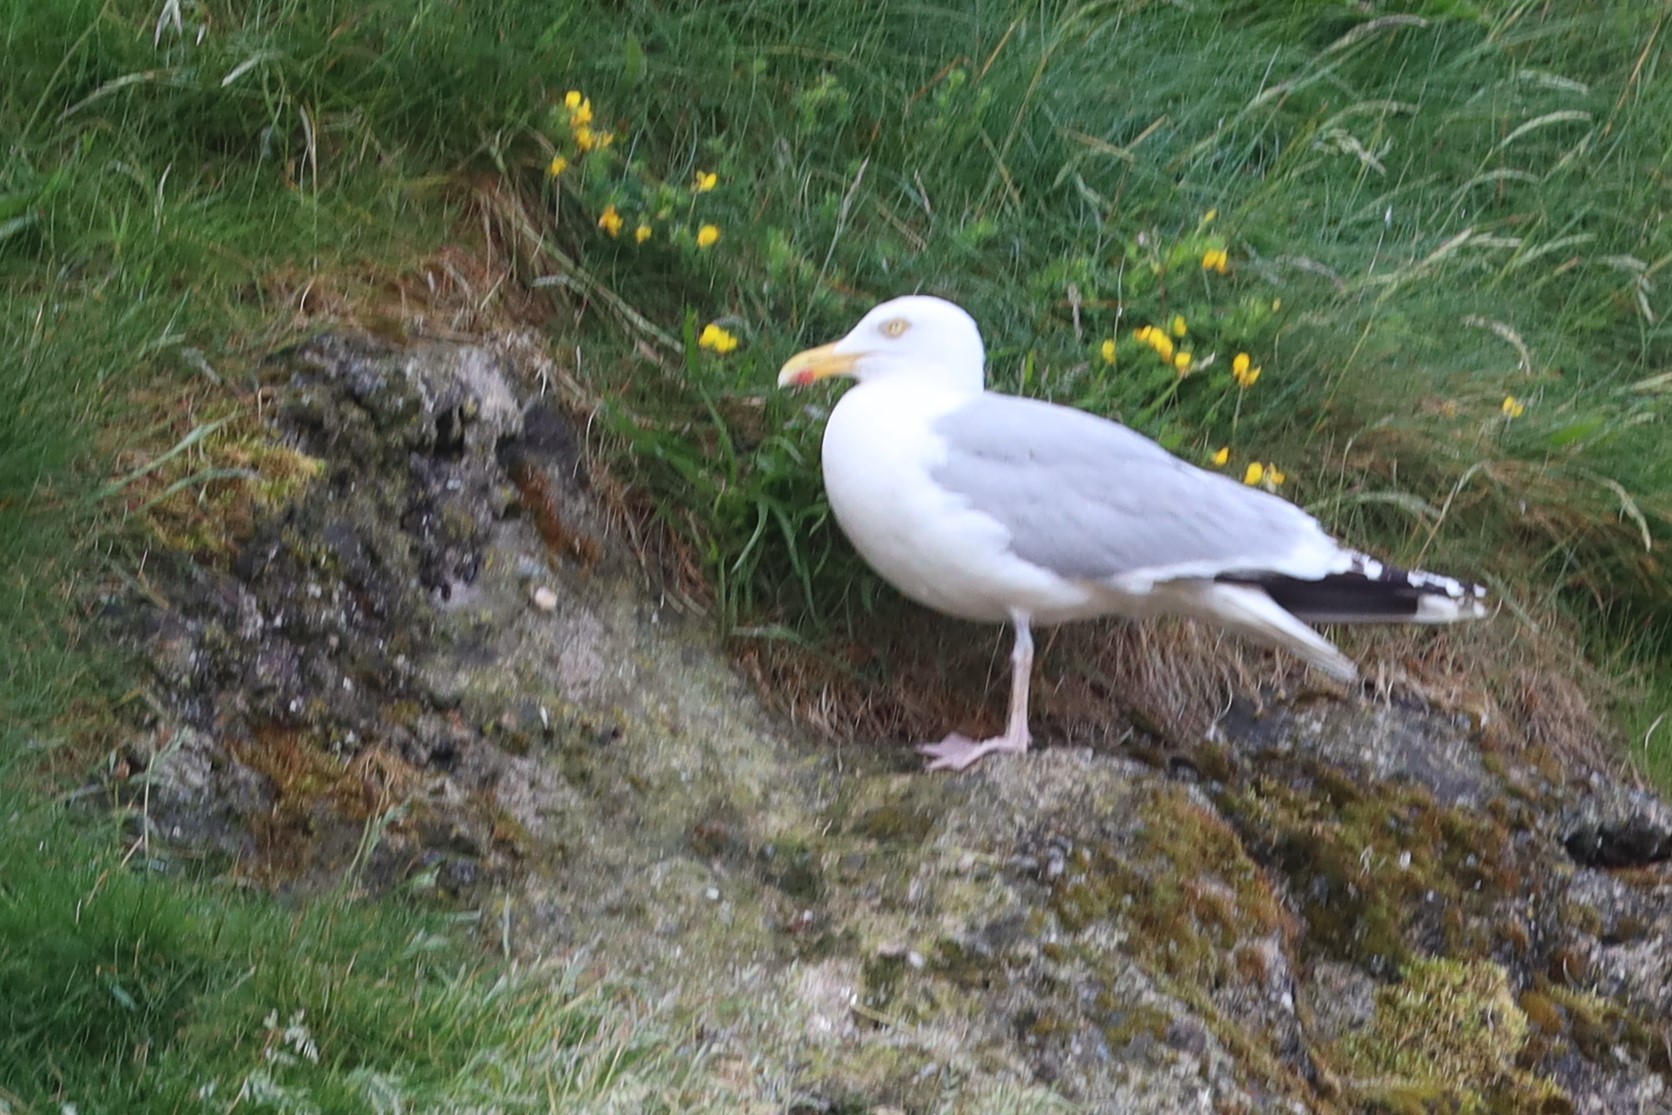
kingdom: Animalia
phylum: Chordata
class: Aves
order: Charadriiformes
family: Laridae
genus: Larus
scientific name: Larus argentatus
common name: Herring gull
